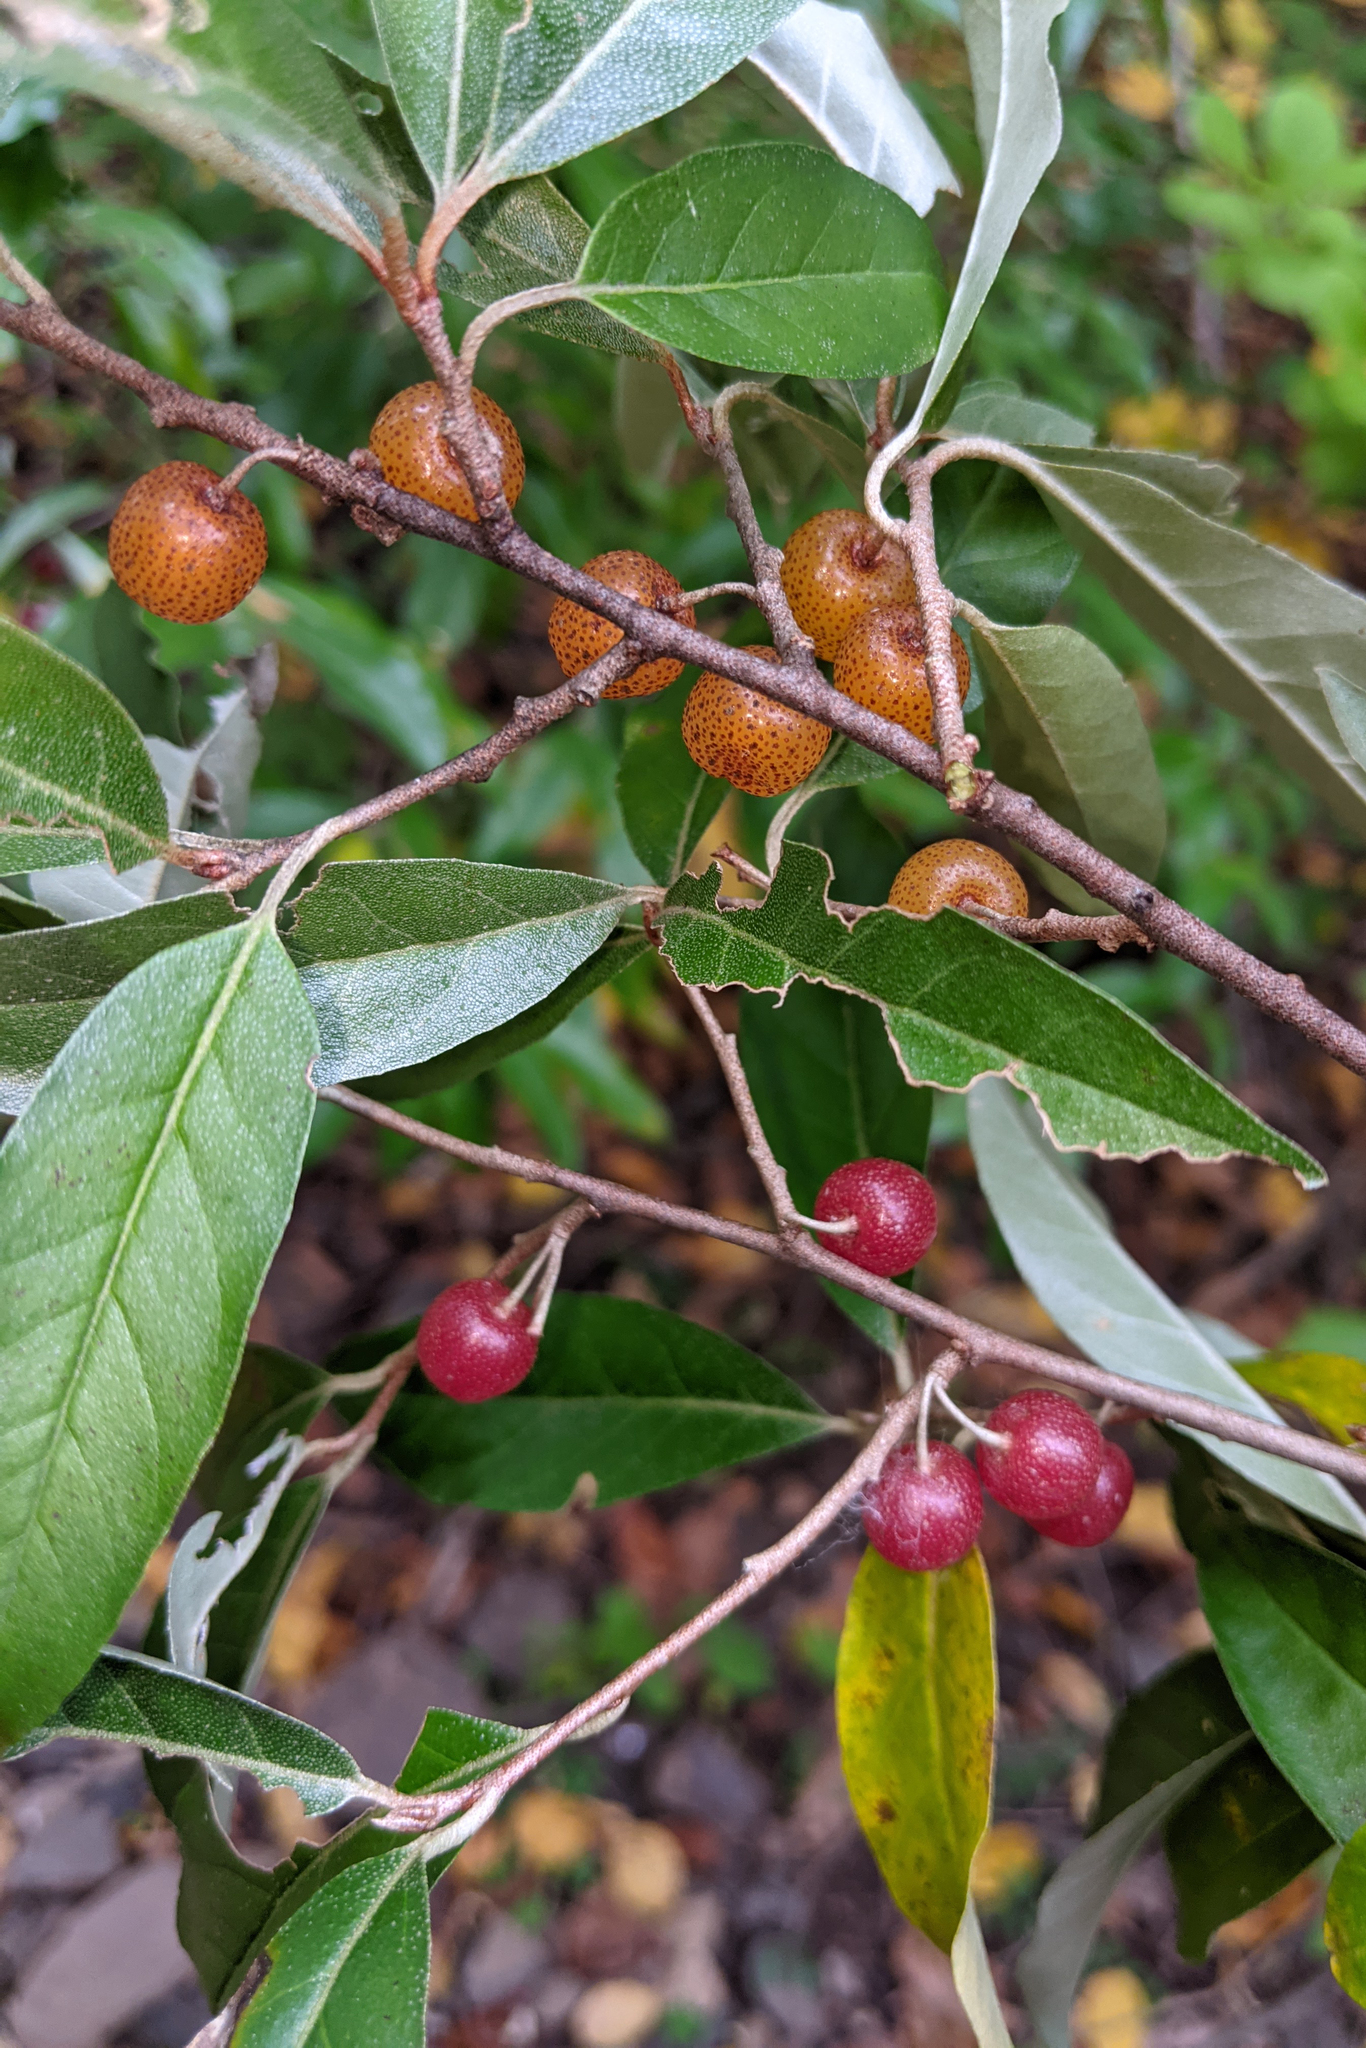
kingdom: Plantae
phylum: Tracheophyta
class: Magnoliopsida
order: Rosales
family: Elaeagnaceae
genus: Elaeagnus
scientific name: Elaeagnus umbellata
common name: Autumn olive
